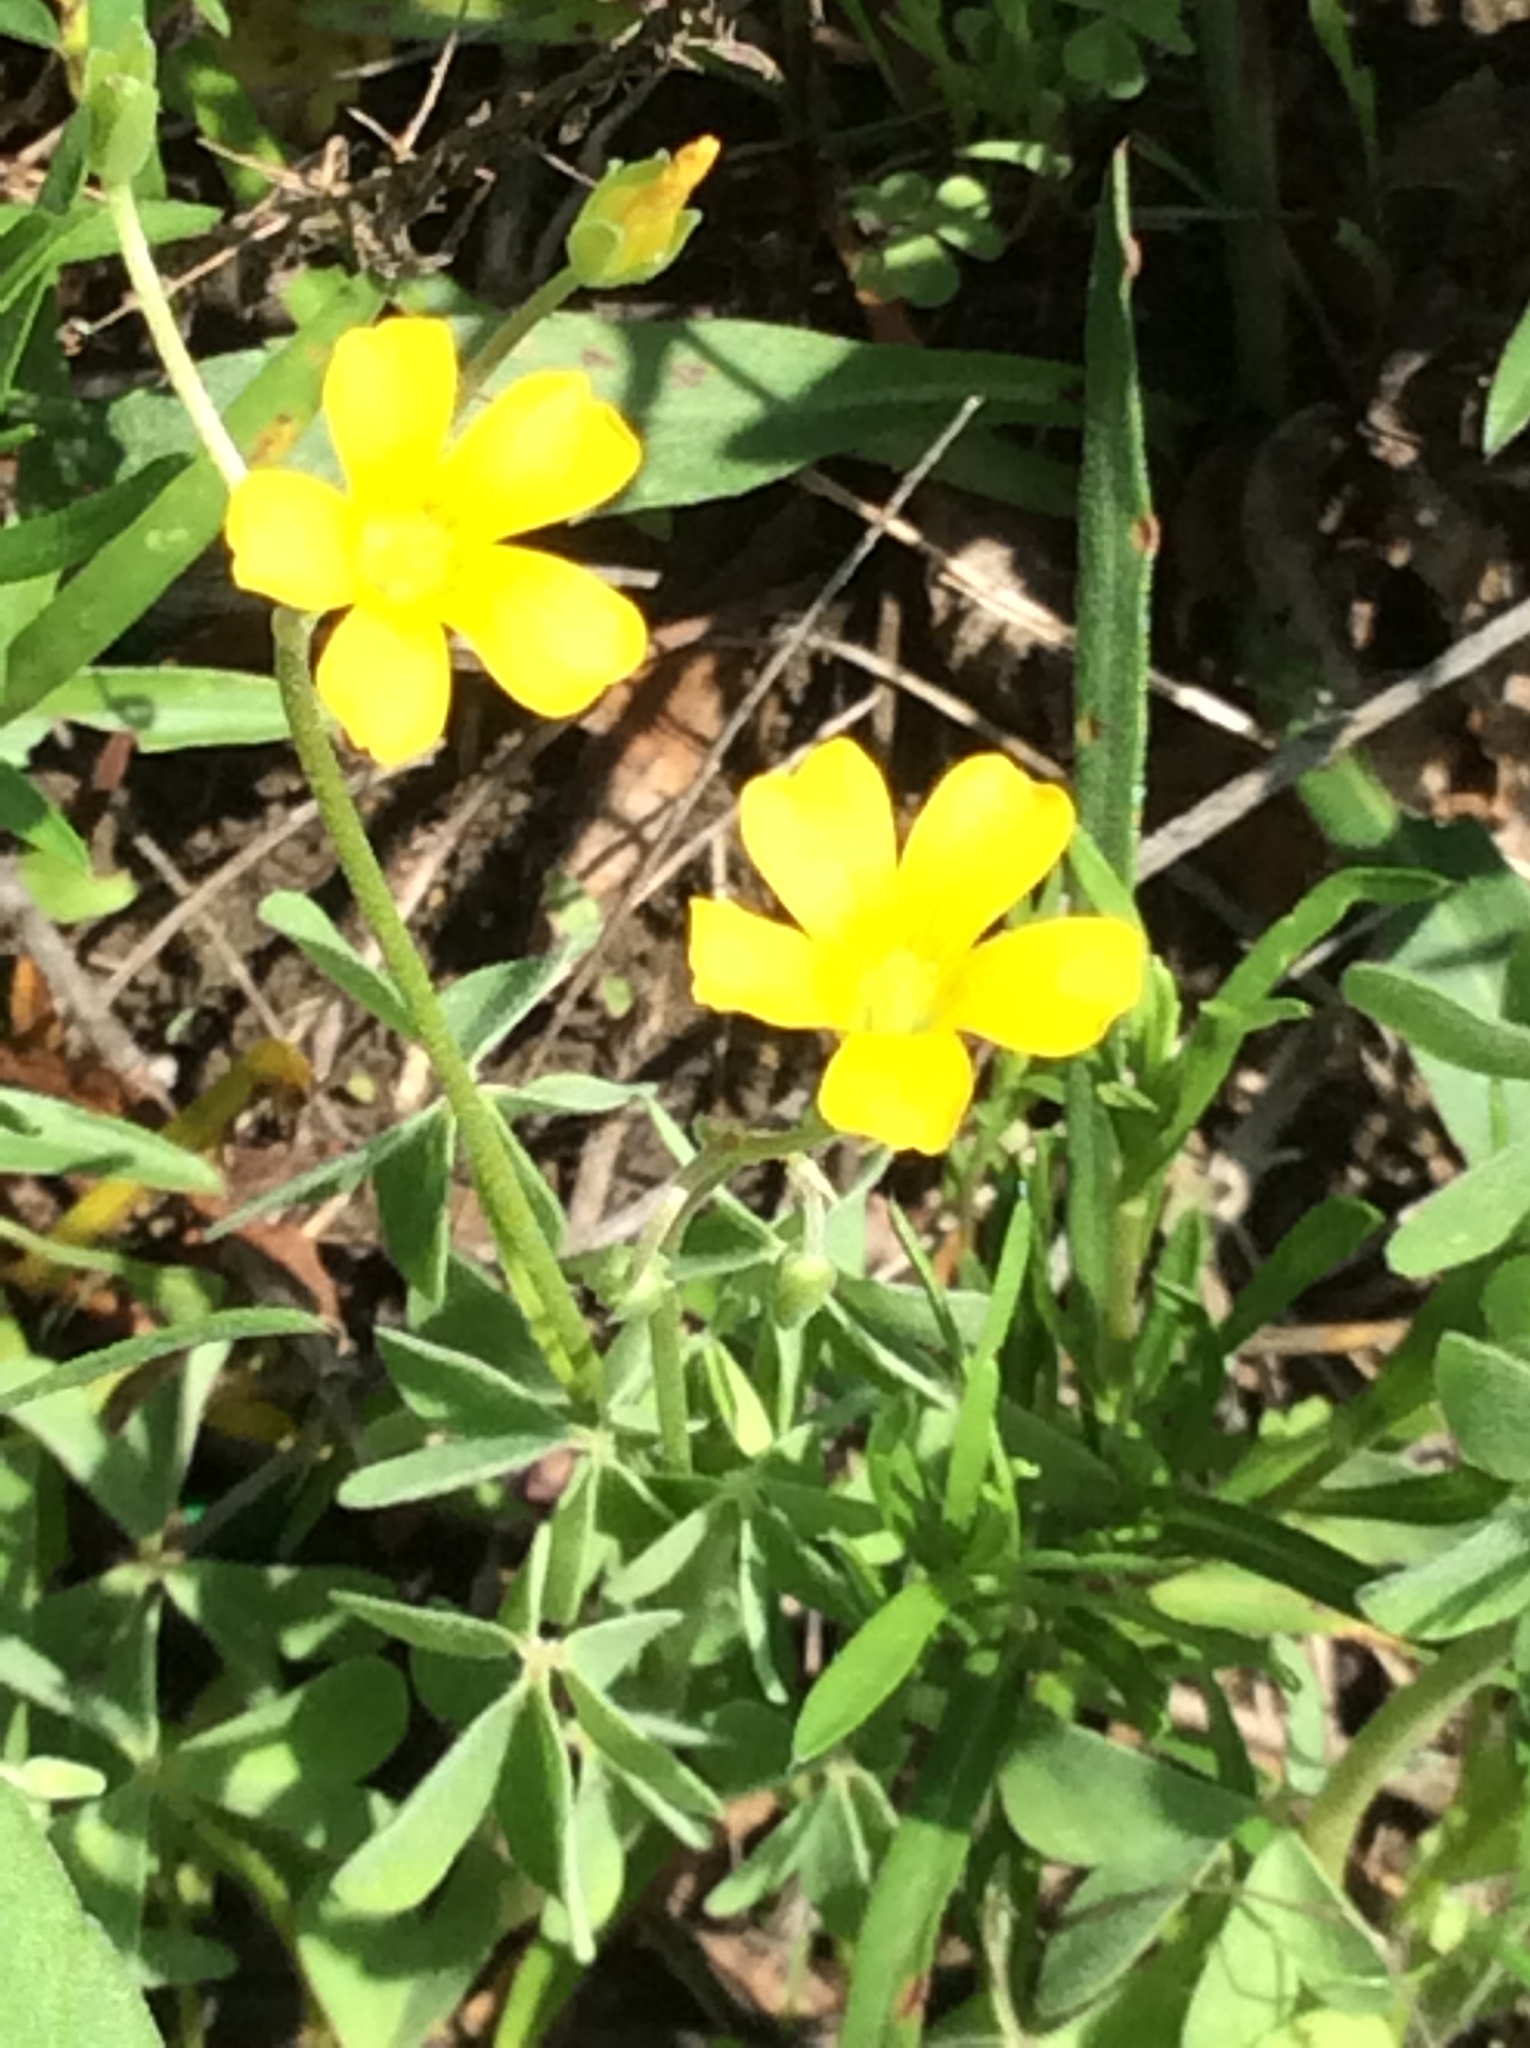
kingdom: Plantae
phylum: Tracheophyta
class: Magnoliopsida
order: Oxalidales
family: Oxalidaceae
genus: Oxalis
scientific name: Oxalis dillenii
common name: Sussex yellow-sorrel
